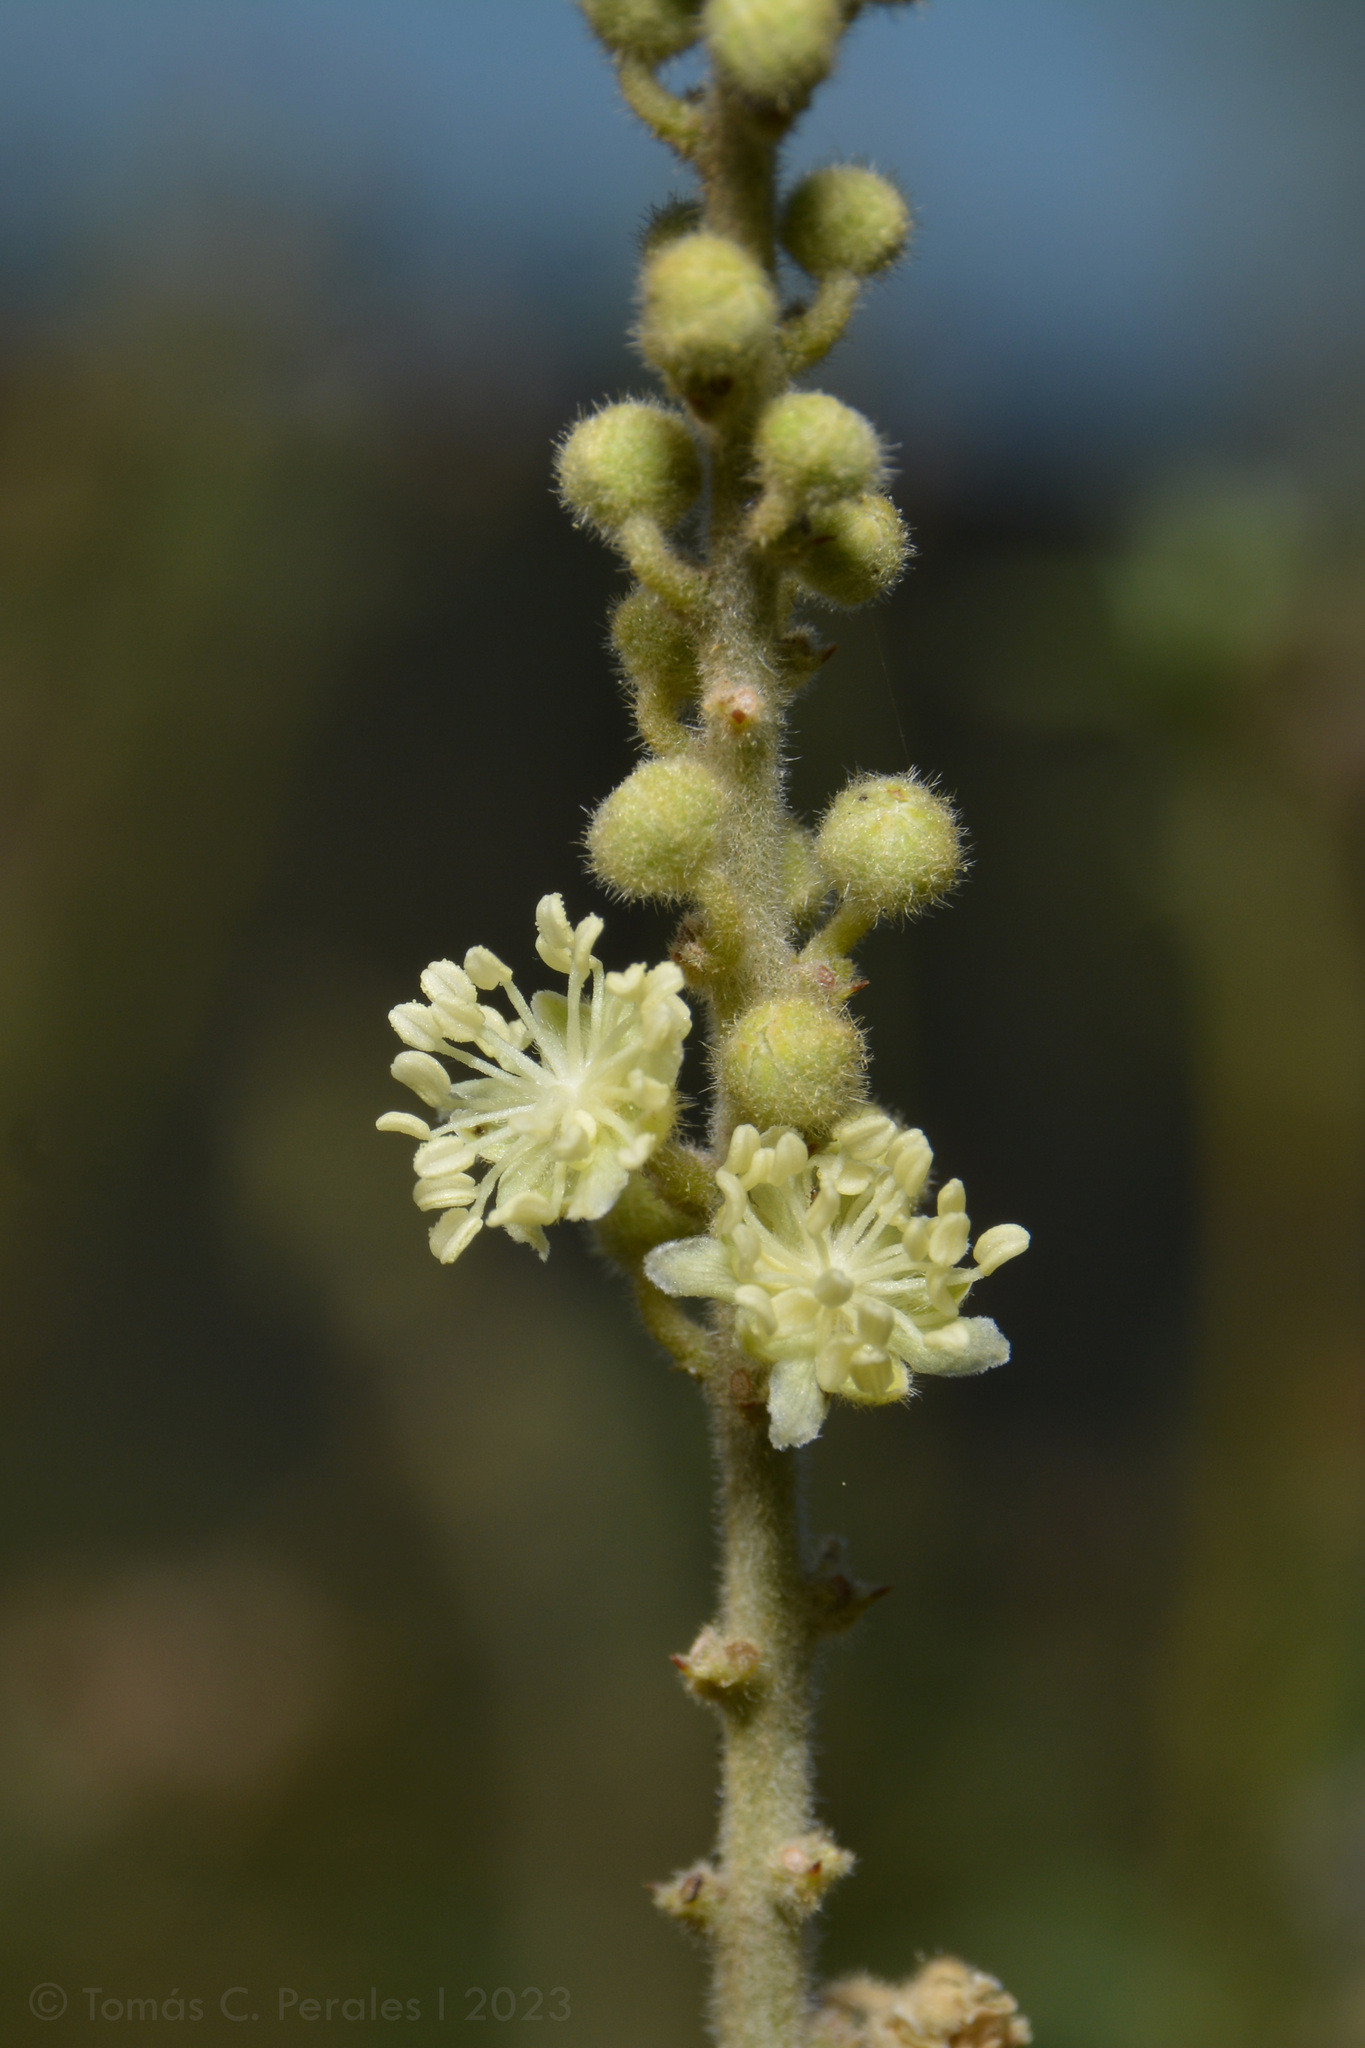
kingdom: Plantae
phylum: Tracheophyta
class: Magnoliopsida
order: Malpighiales
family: Euphorbiaceae
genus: Croton
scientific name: Croton lachnostachyus
